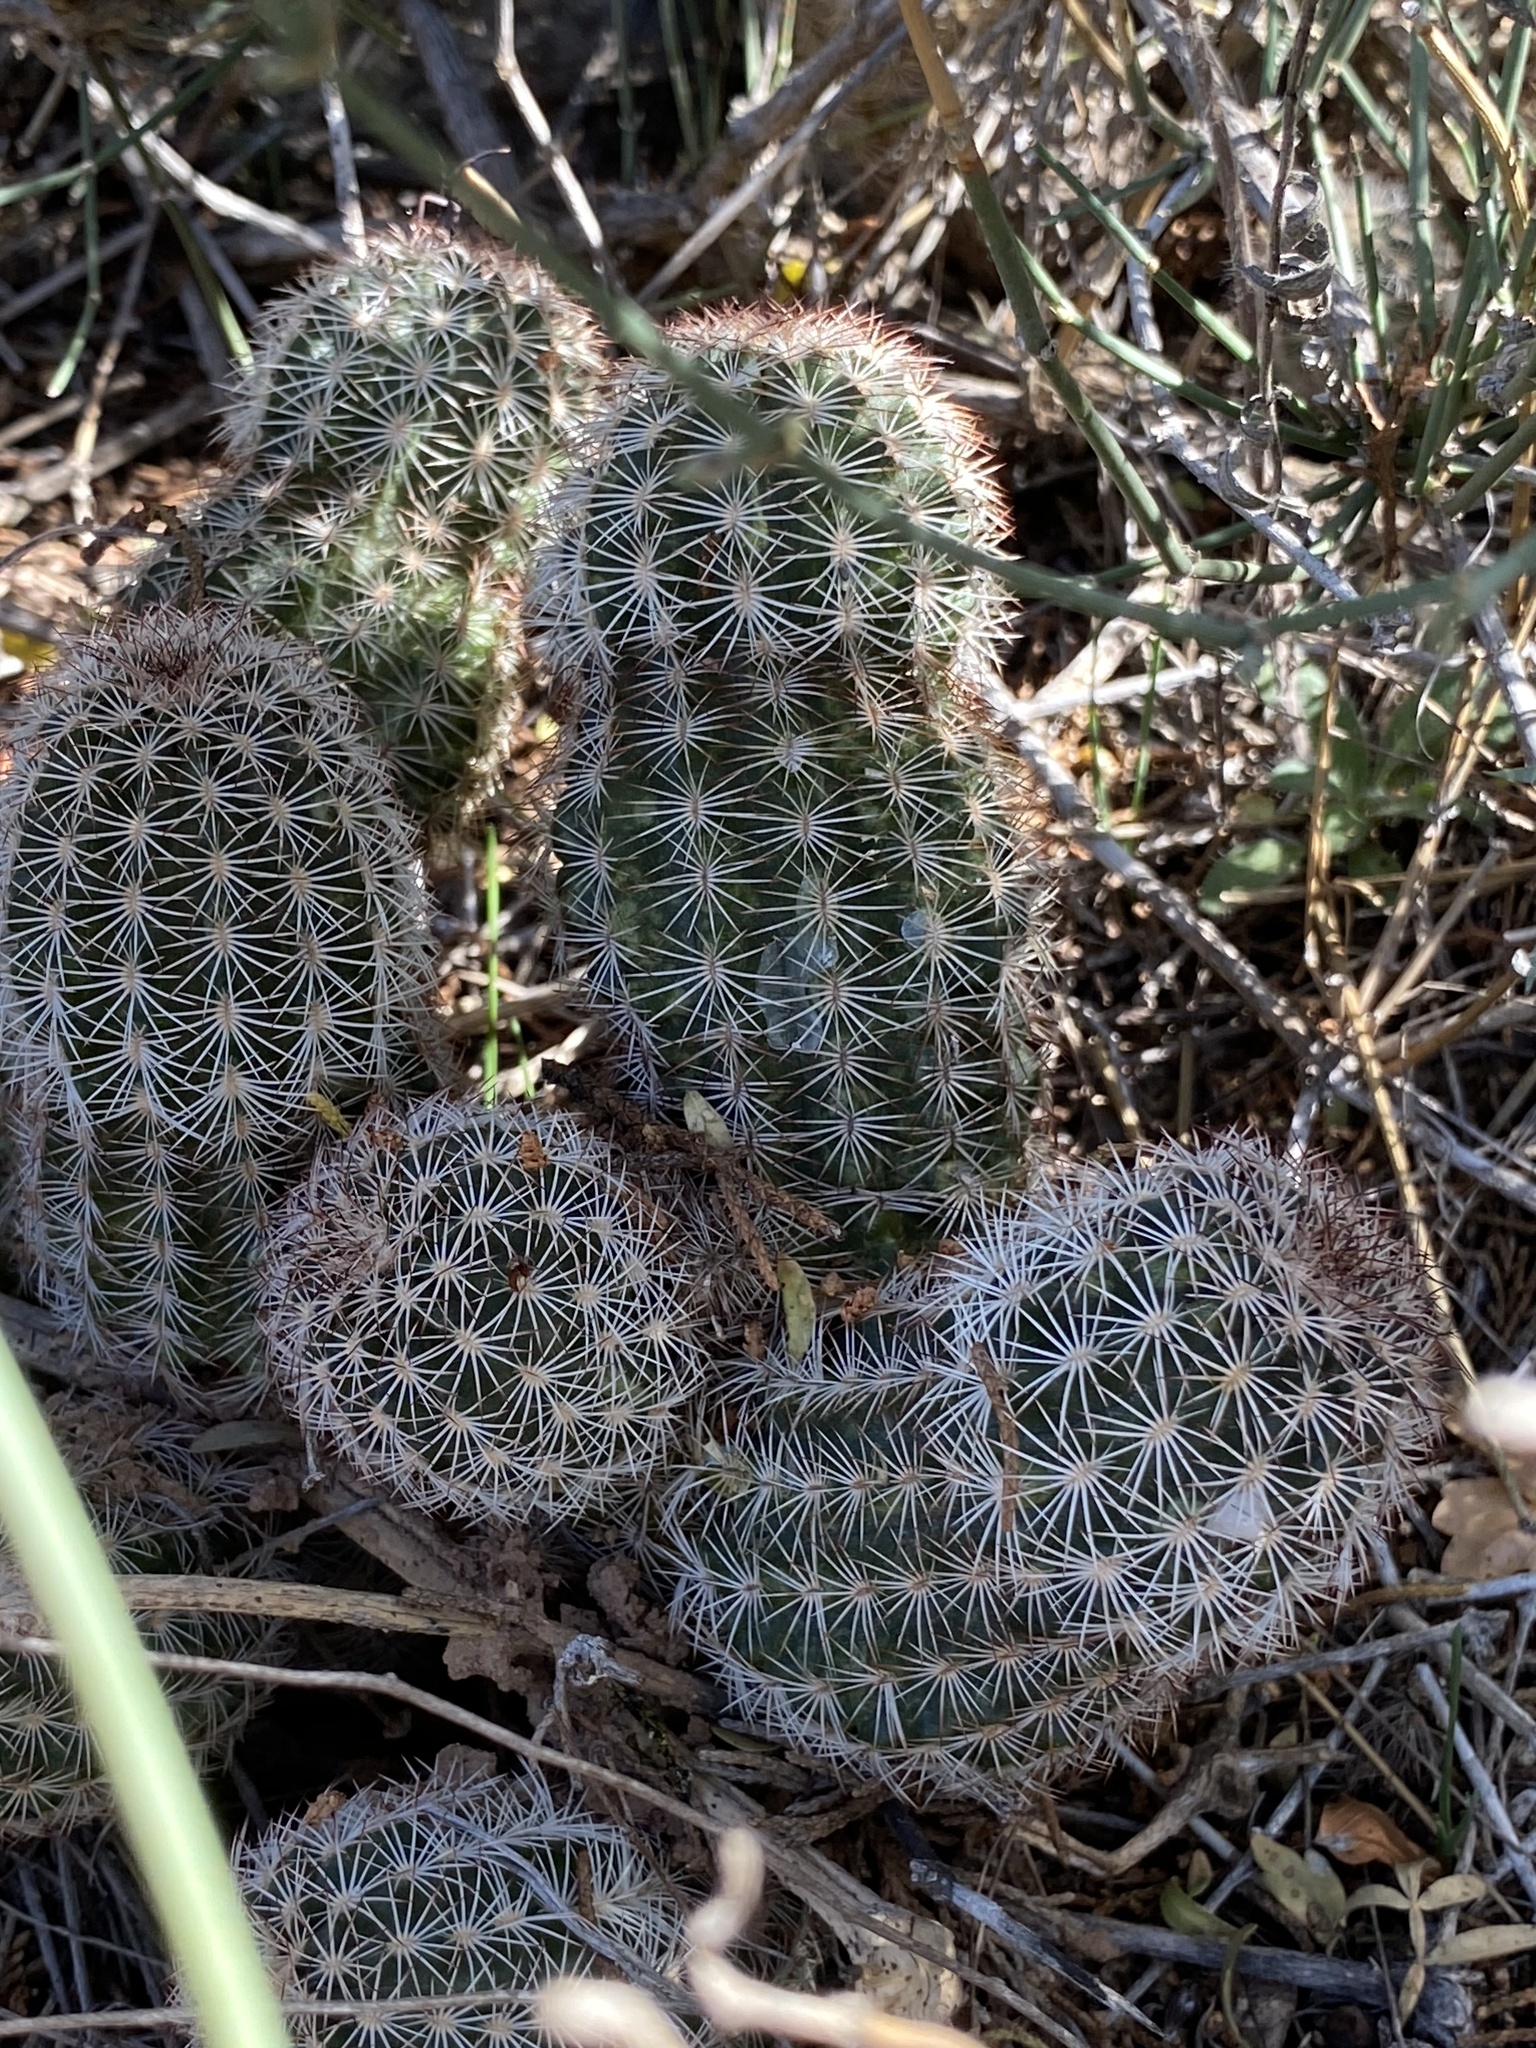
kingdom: Plantae
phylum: Tracheophyta
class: Magnoliopsida
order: Caryophyllales
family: Cactaceae
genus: Echinocereus
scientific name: Echinocereus reichenbachii
